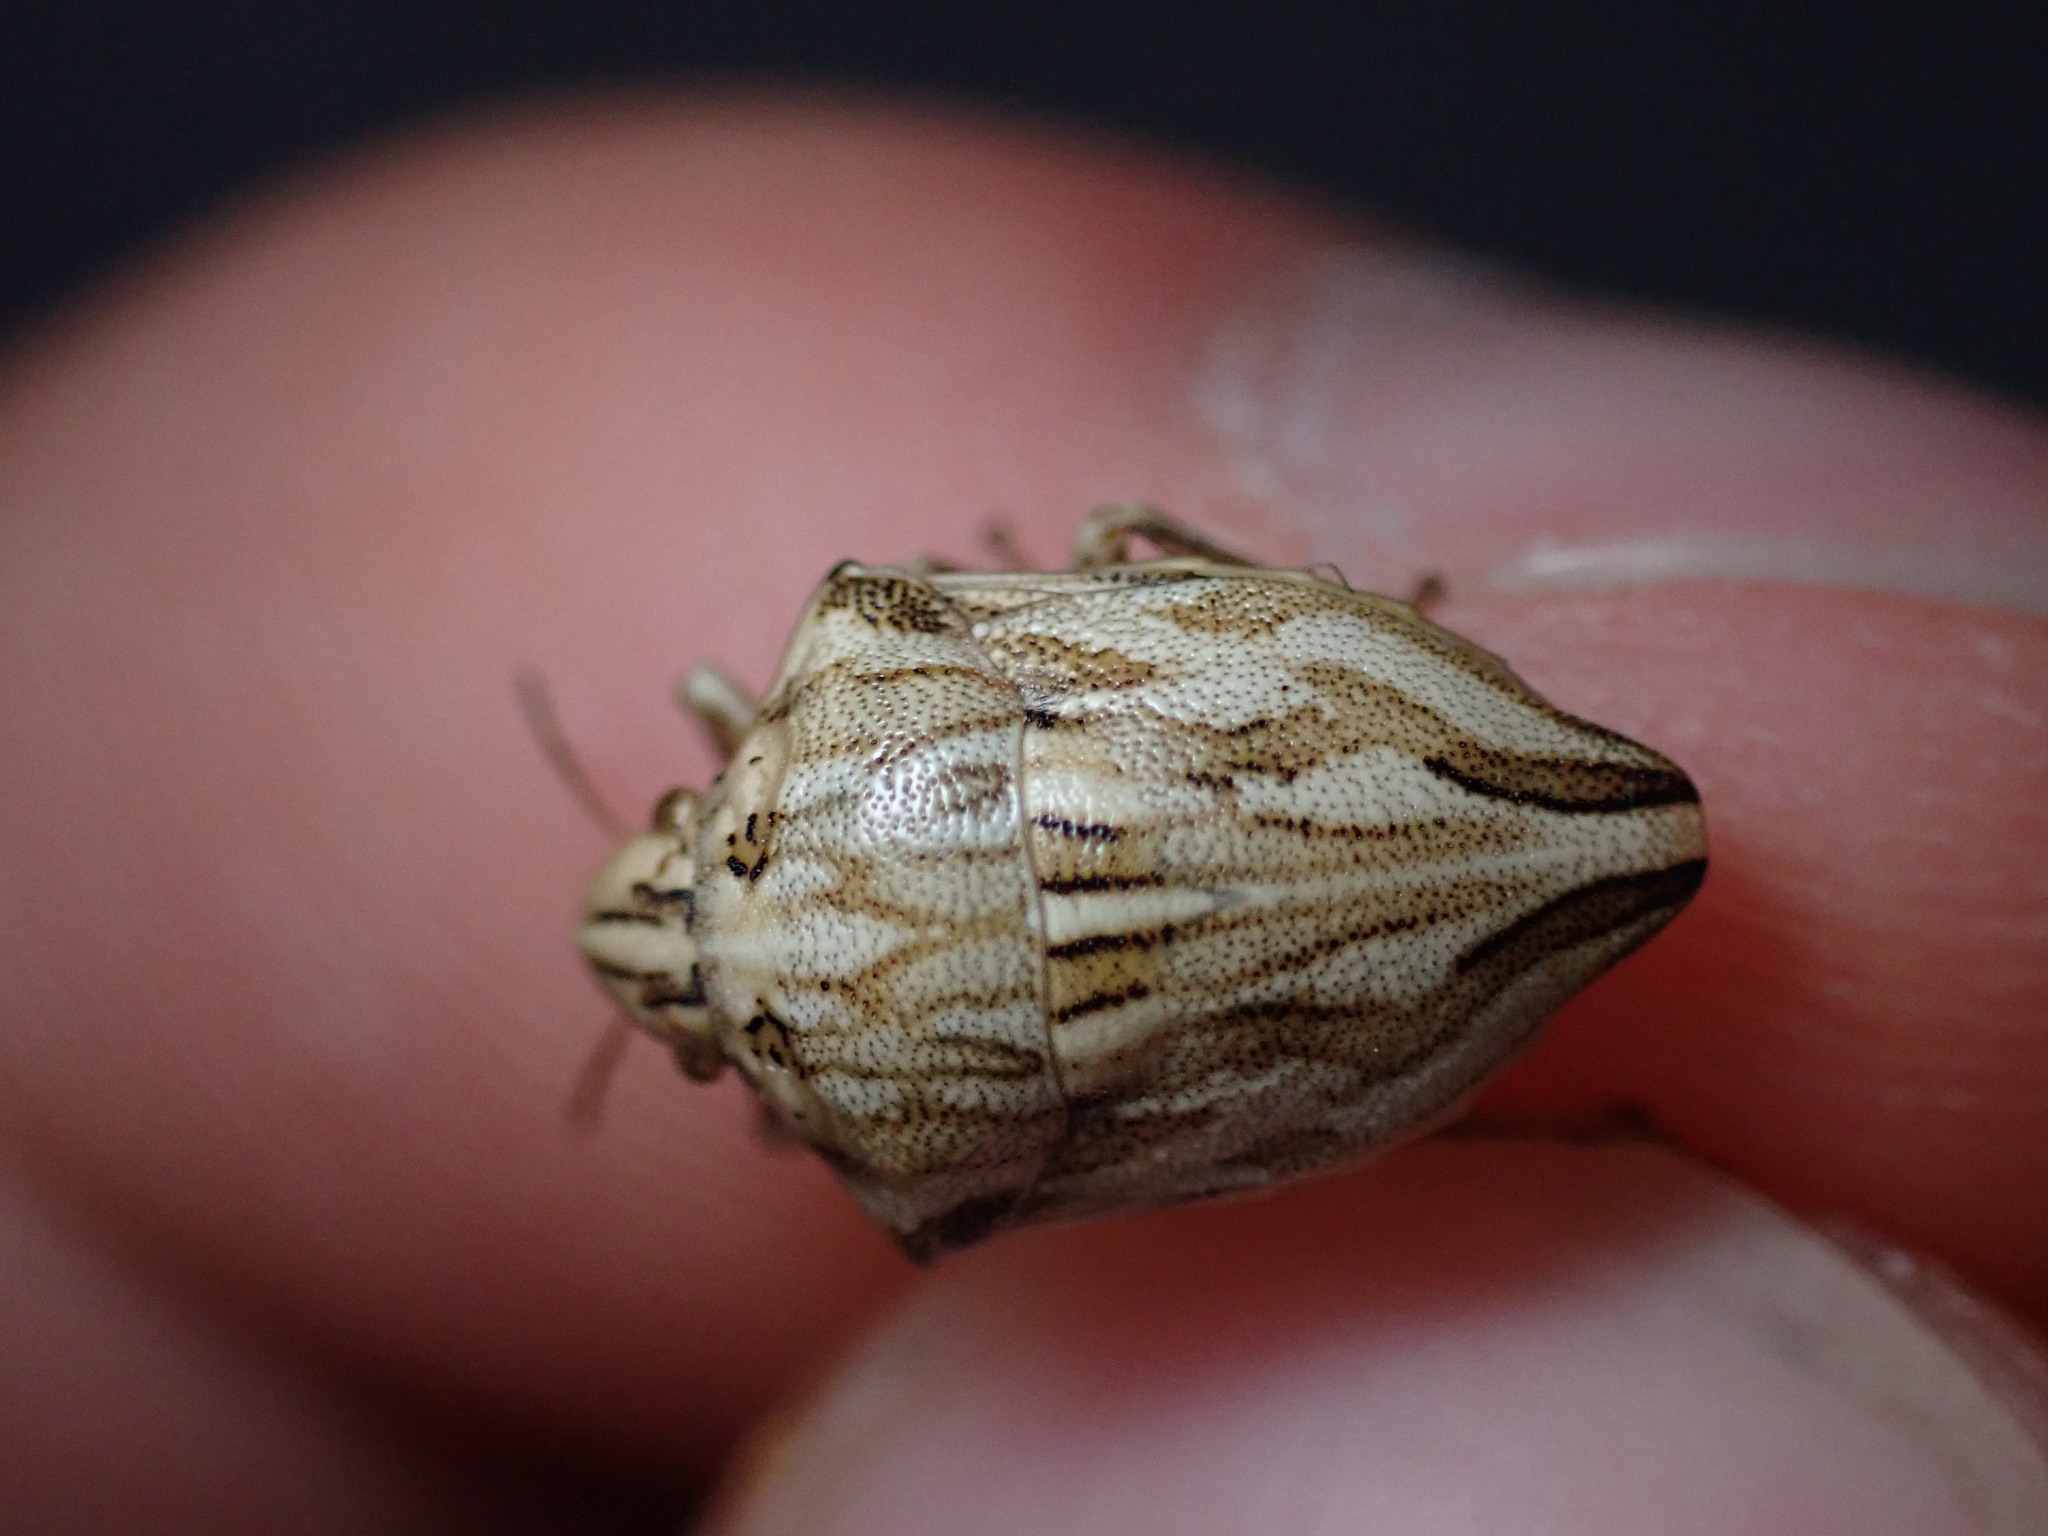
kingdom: Animalia
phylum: Arthropoda
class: Insecta
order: Hemiptera
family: Scutelleridae
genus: Odontotarsus
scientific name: Odontotarsus robustus
